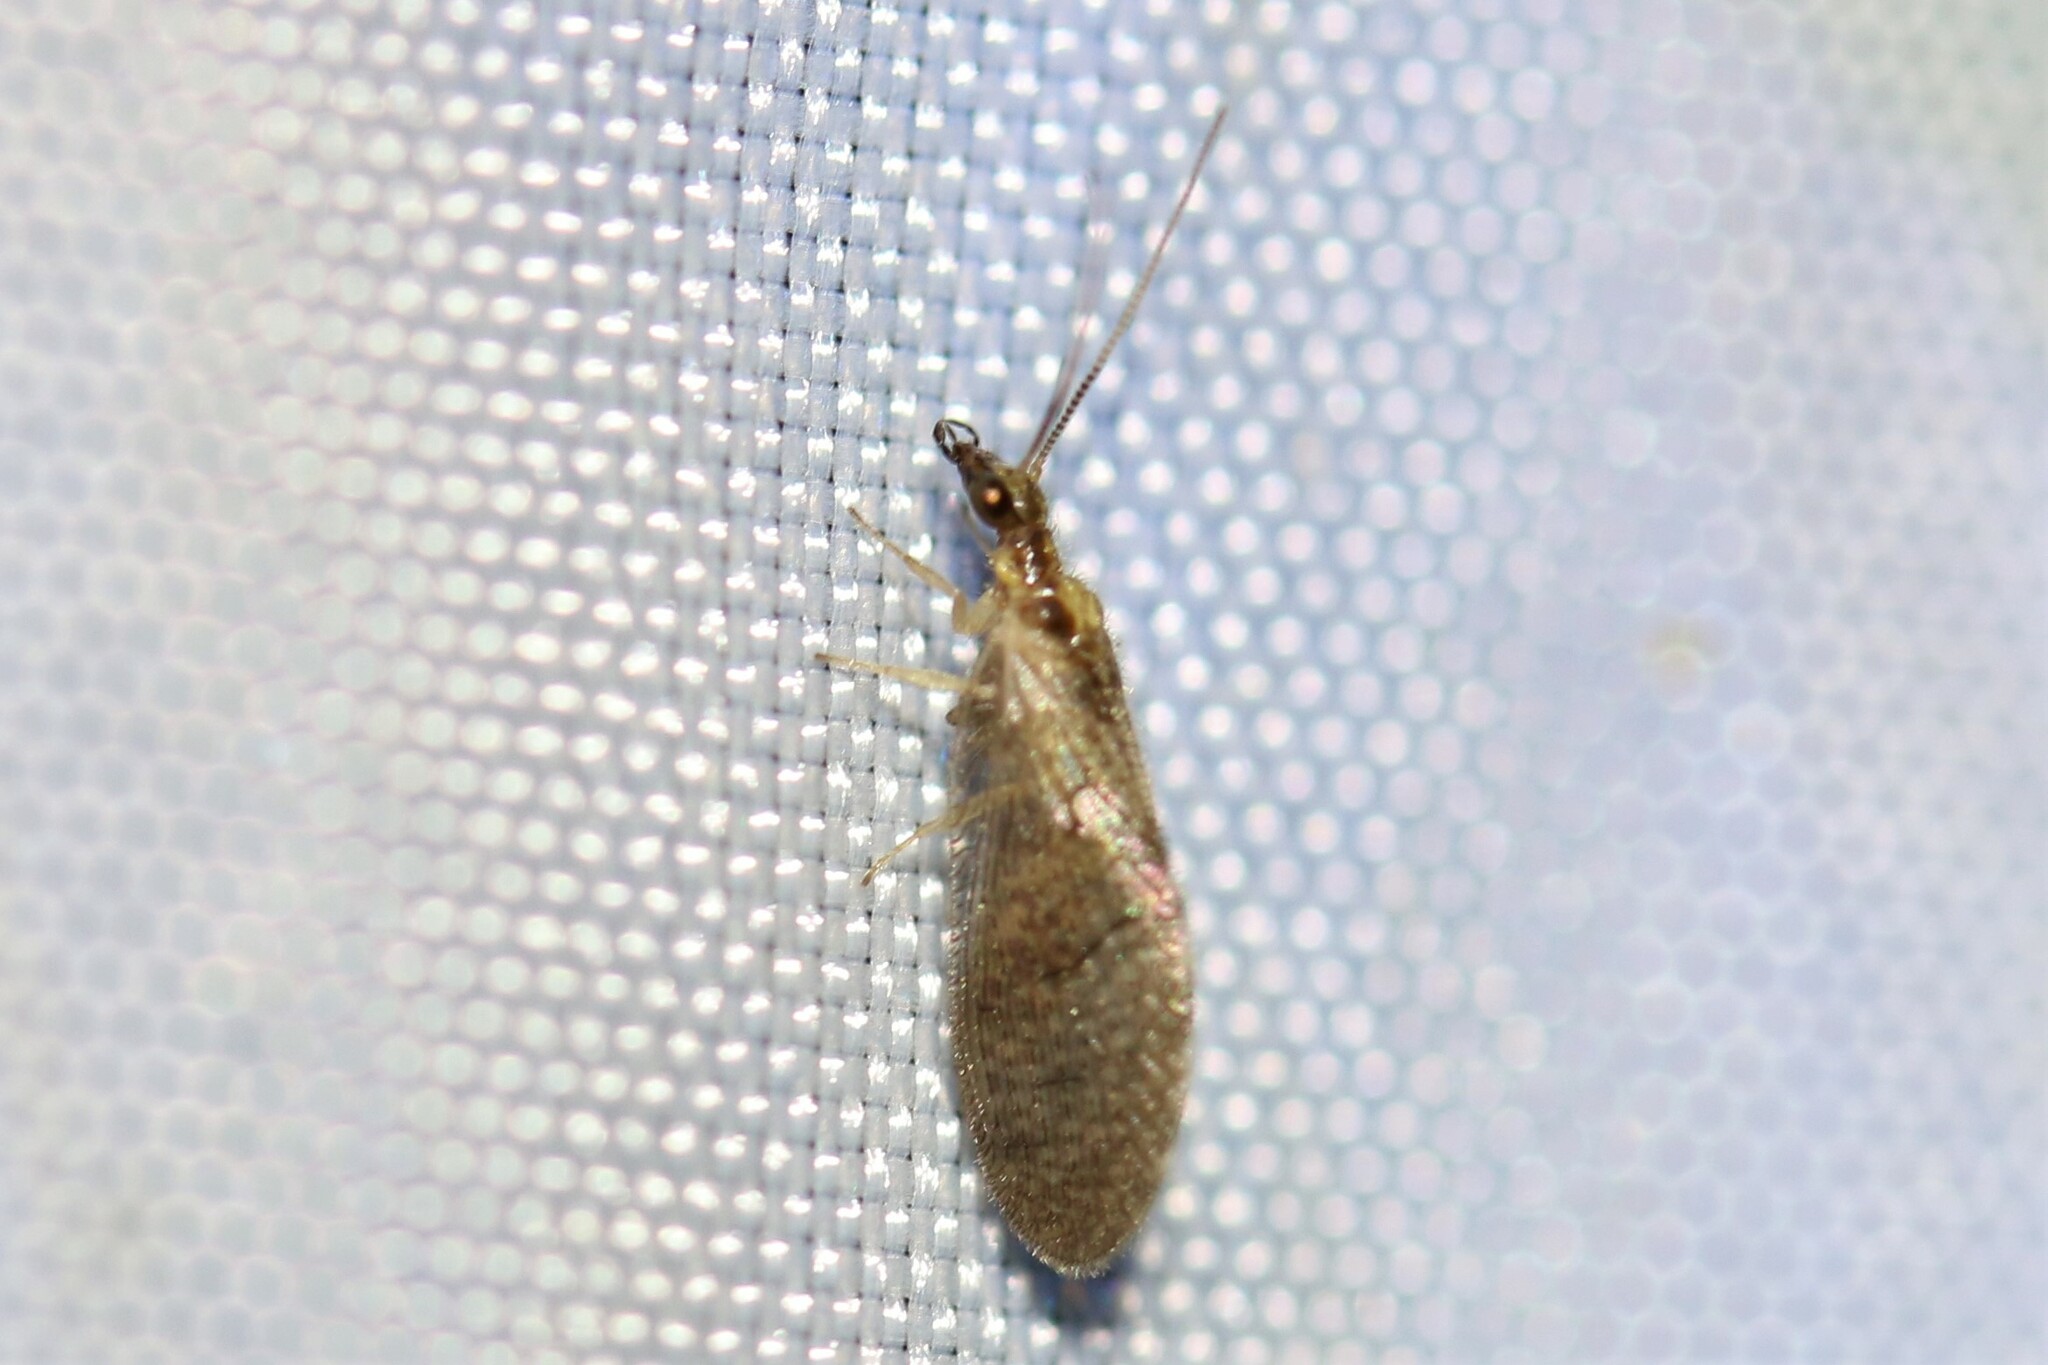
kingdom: Animalia
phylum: Arthropoda
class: Insecta
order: Neuroptera
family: Hemerobiidae
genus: Sympherobius
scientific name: Sympherobius pygmaeus
